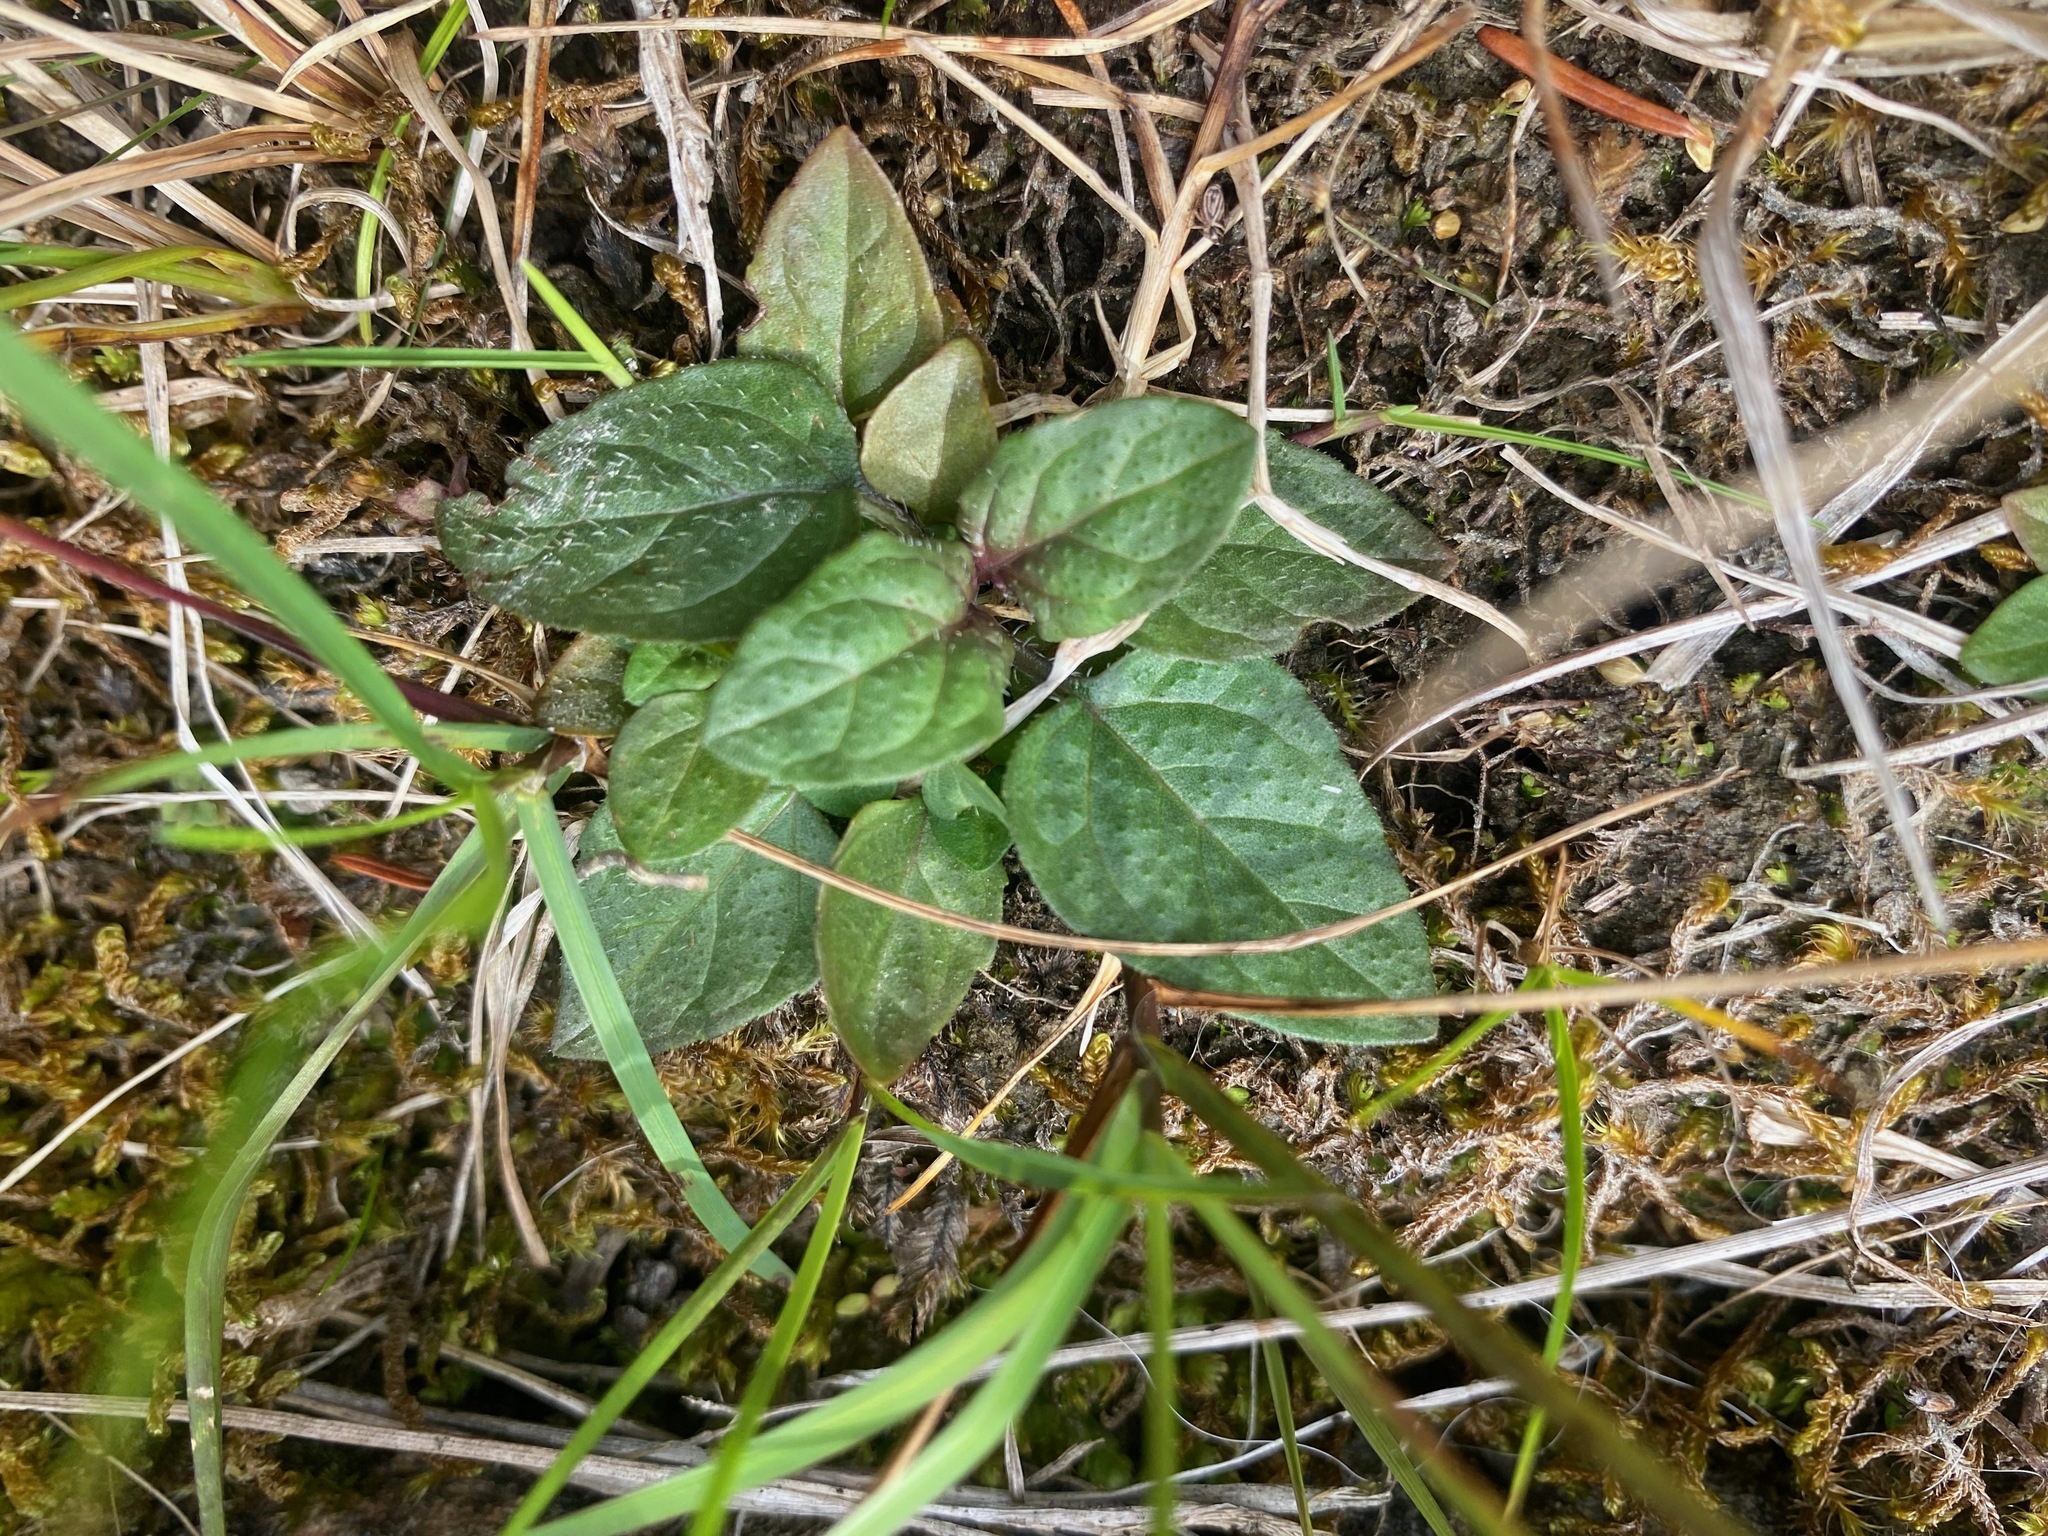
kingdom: Plantae
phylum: Tracheophyta
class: Magnoliopsida
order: Lamiales
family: Lamiaceae
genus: Prunella
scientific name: Prunella vulgaris
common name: Heal-all
